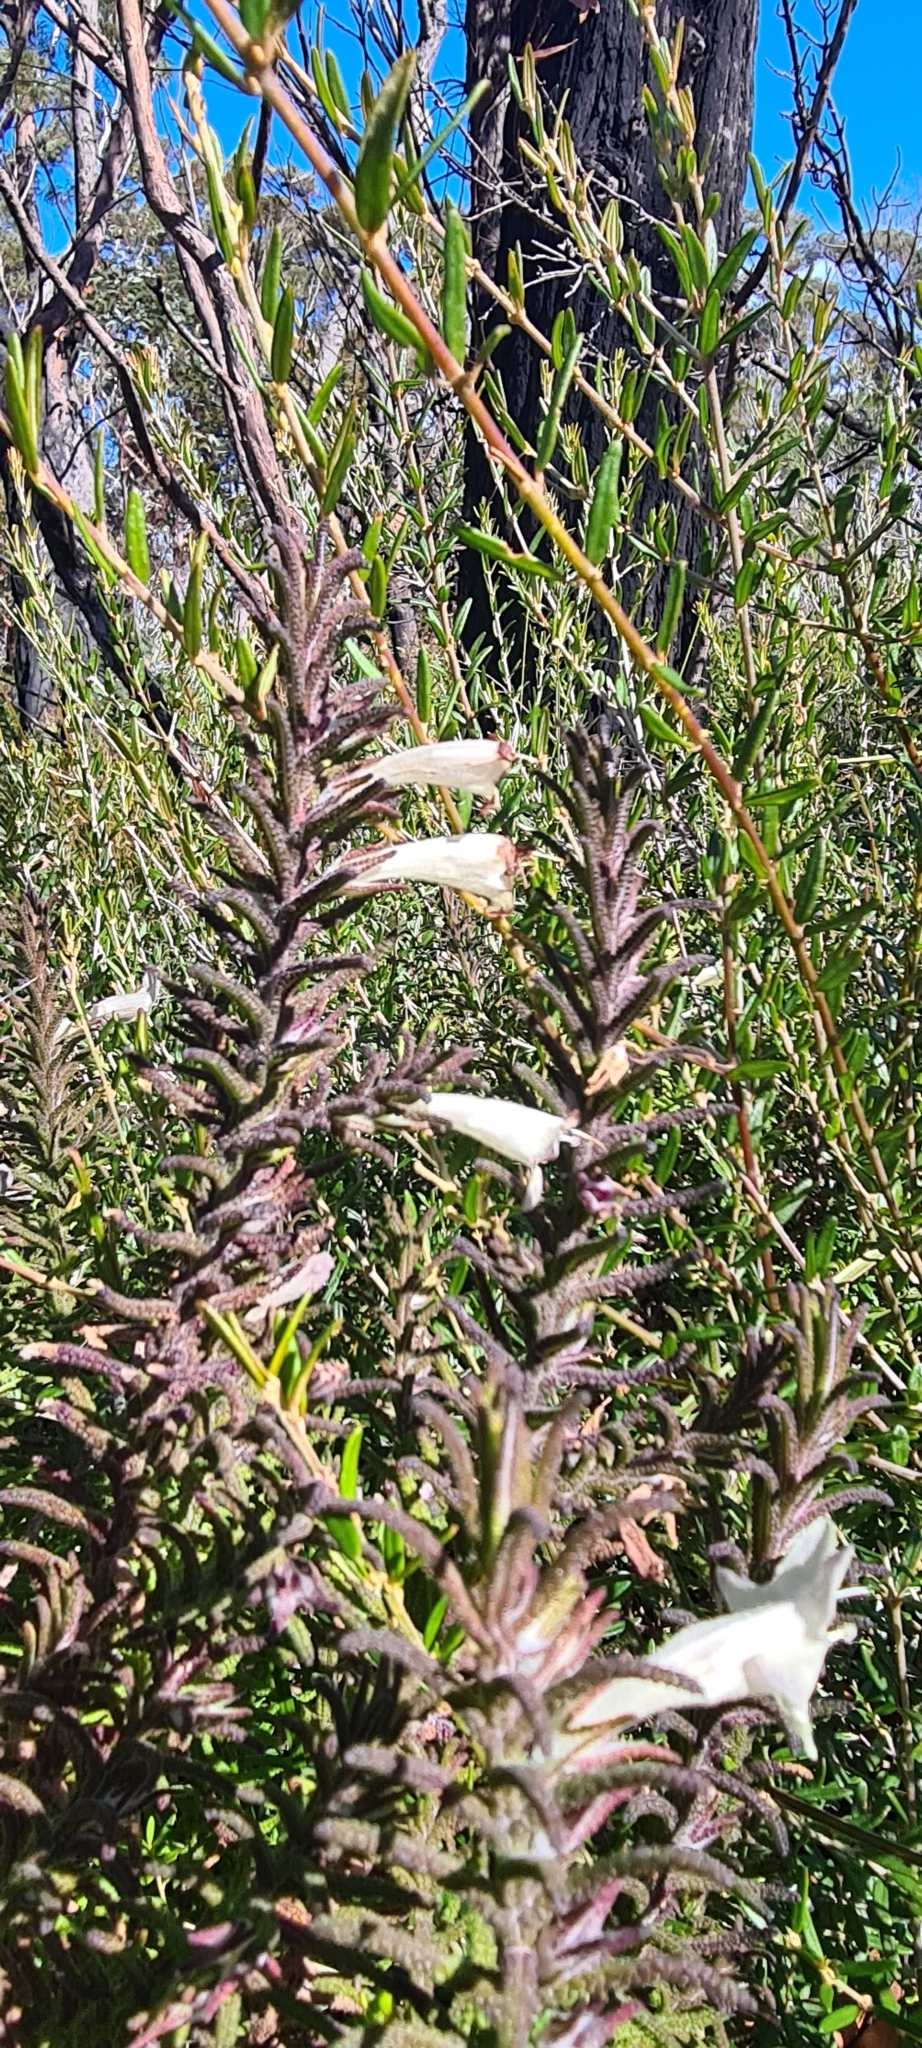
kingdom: Plantae
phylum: Tracheophyta
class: Magnoliopsida
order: Lamiales
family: Lamiaceae
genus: Chloanthes
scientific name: Chloanthes stoechadis
